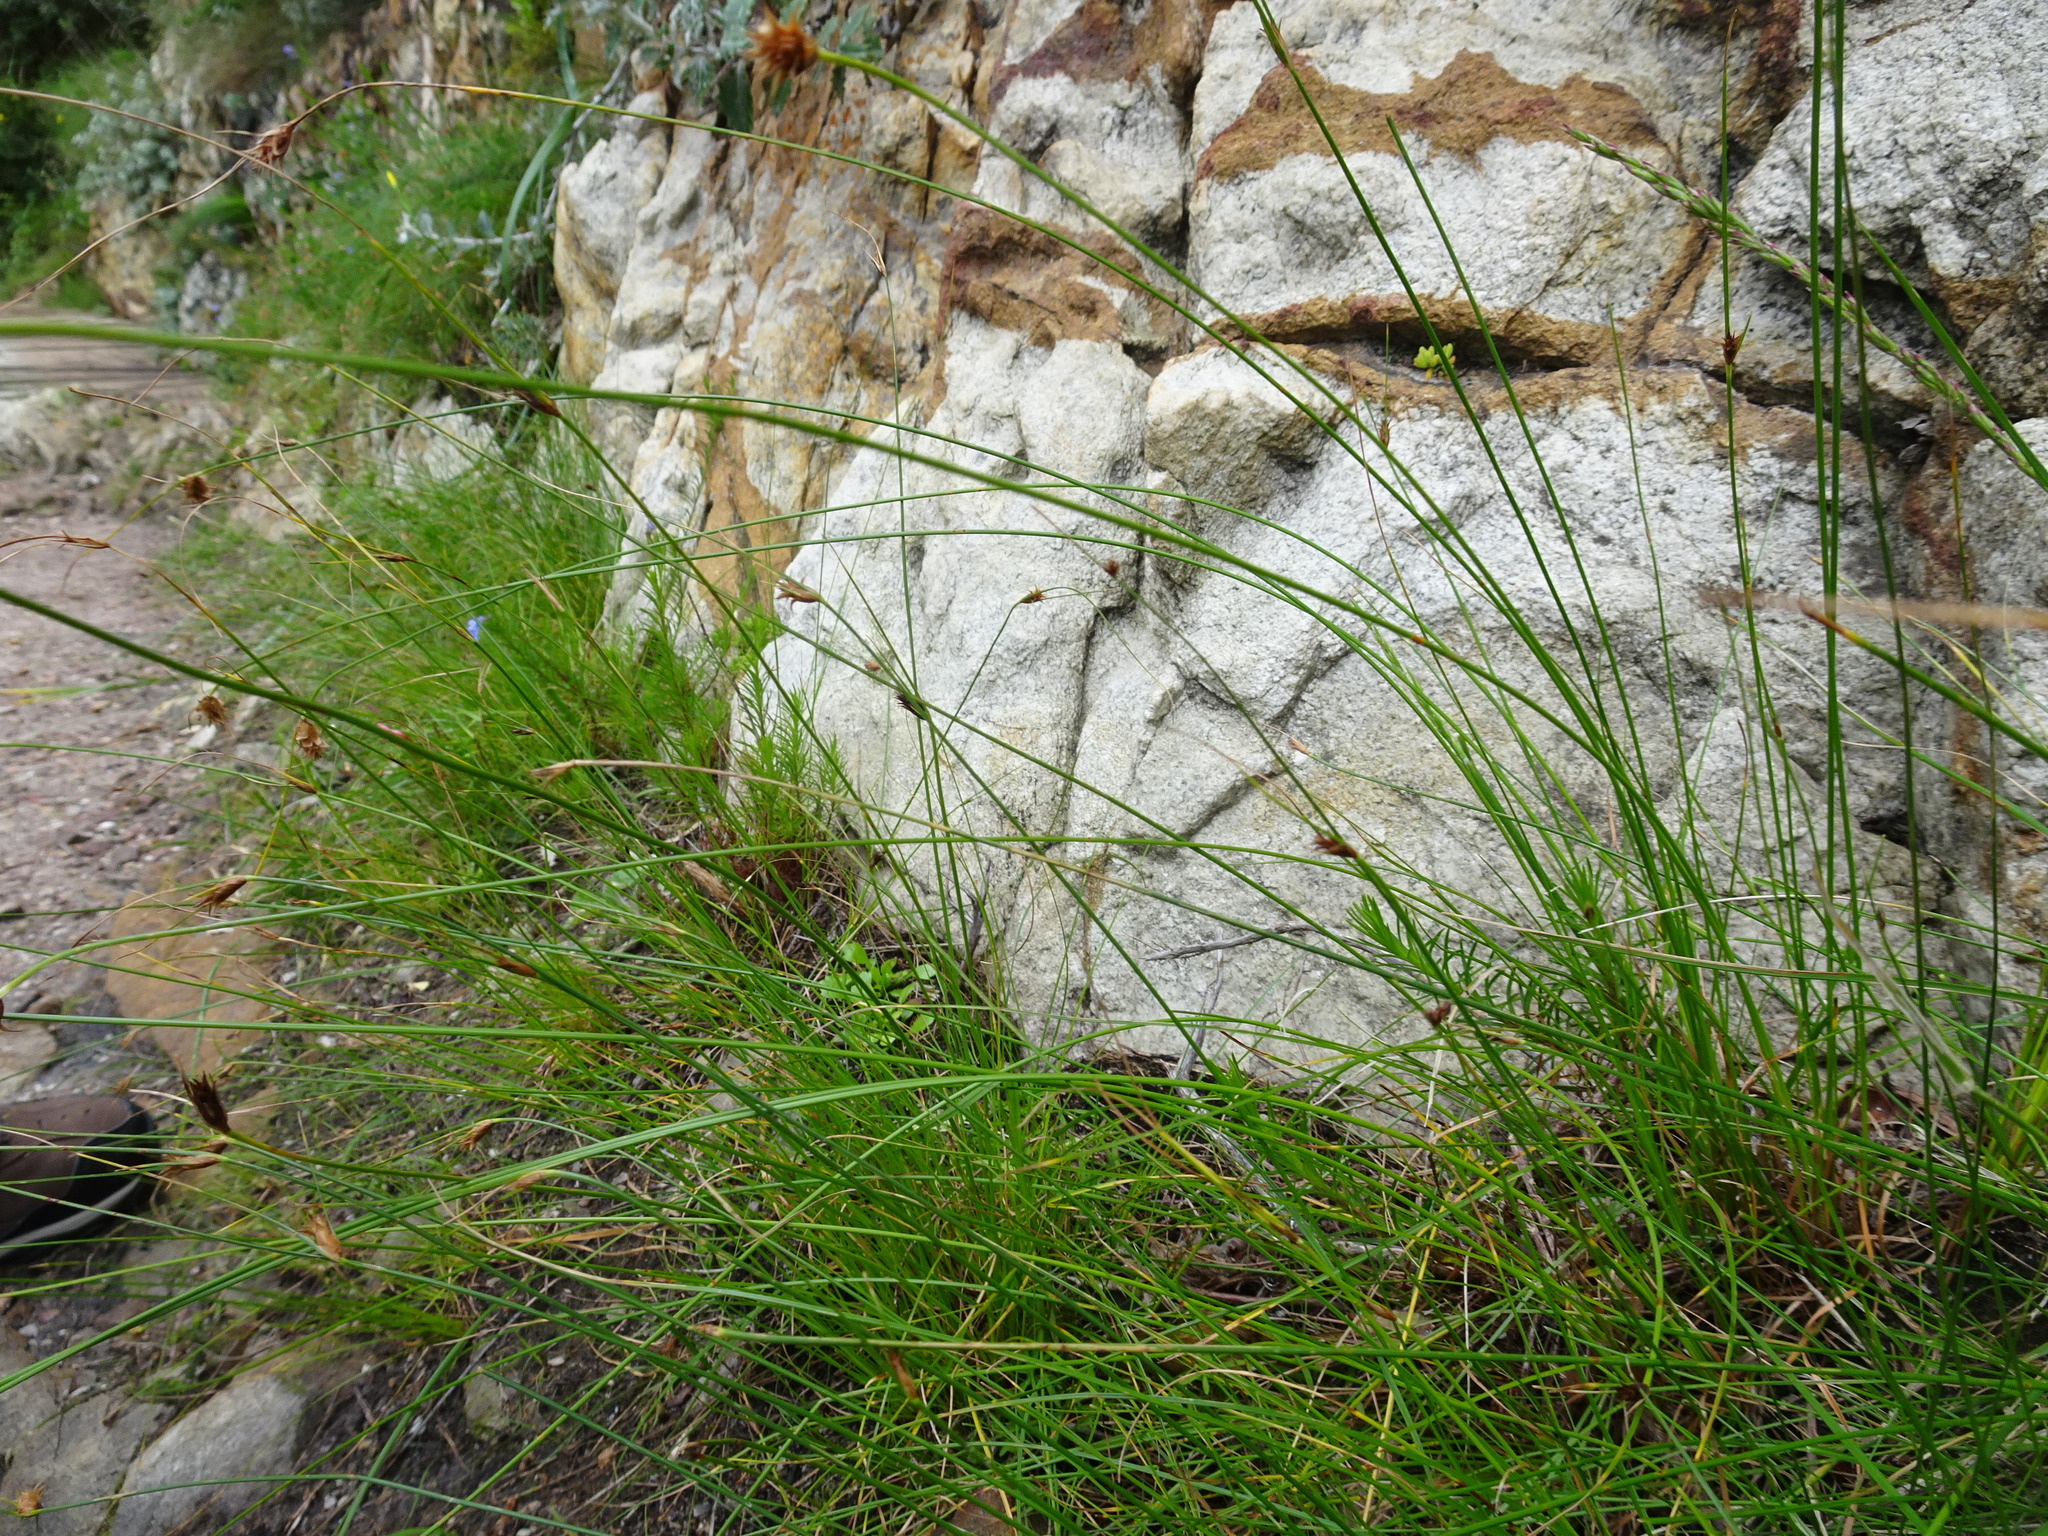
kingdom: Plantae
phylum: Tracheophyta
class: Liliopsida
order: Poales
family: Cyperaceae
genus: Ficinia
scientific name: Ficinia nigrescens
